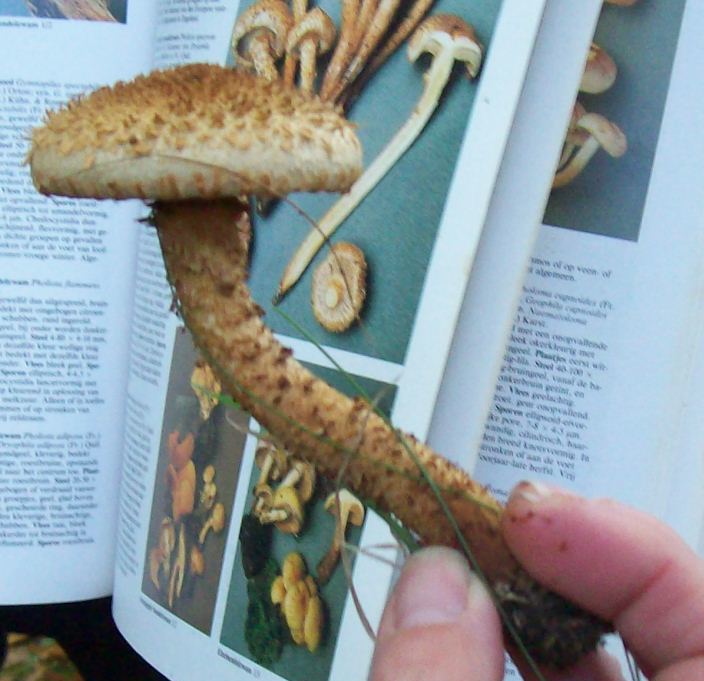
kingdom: Fungi
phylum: Basidiomycota
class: Agaricomycetes
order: Agaricales
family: Strophariaceae
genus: Pholiota
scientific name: Pholiota squarrosa
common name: Shaggy pholiota
